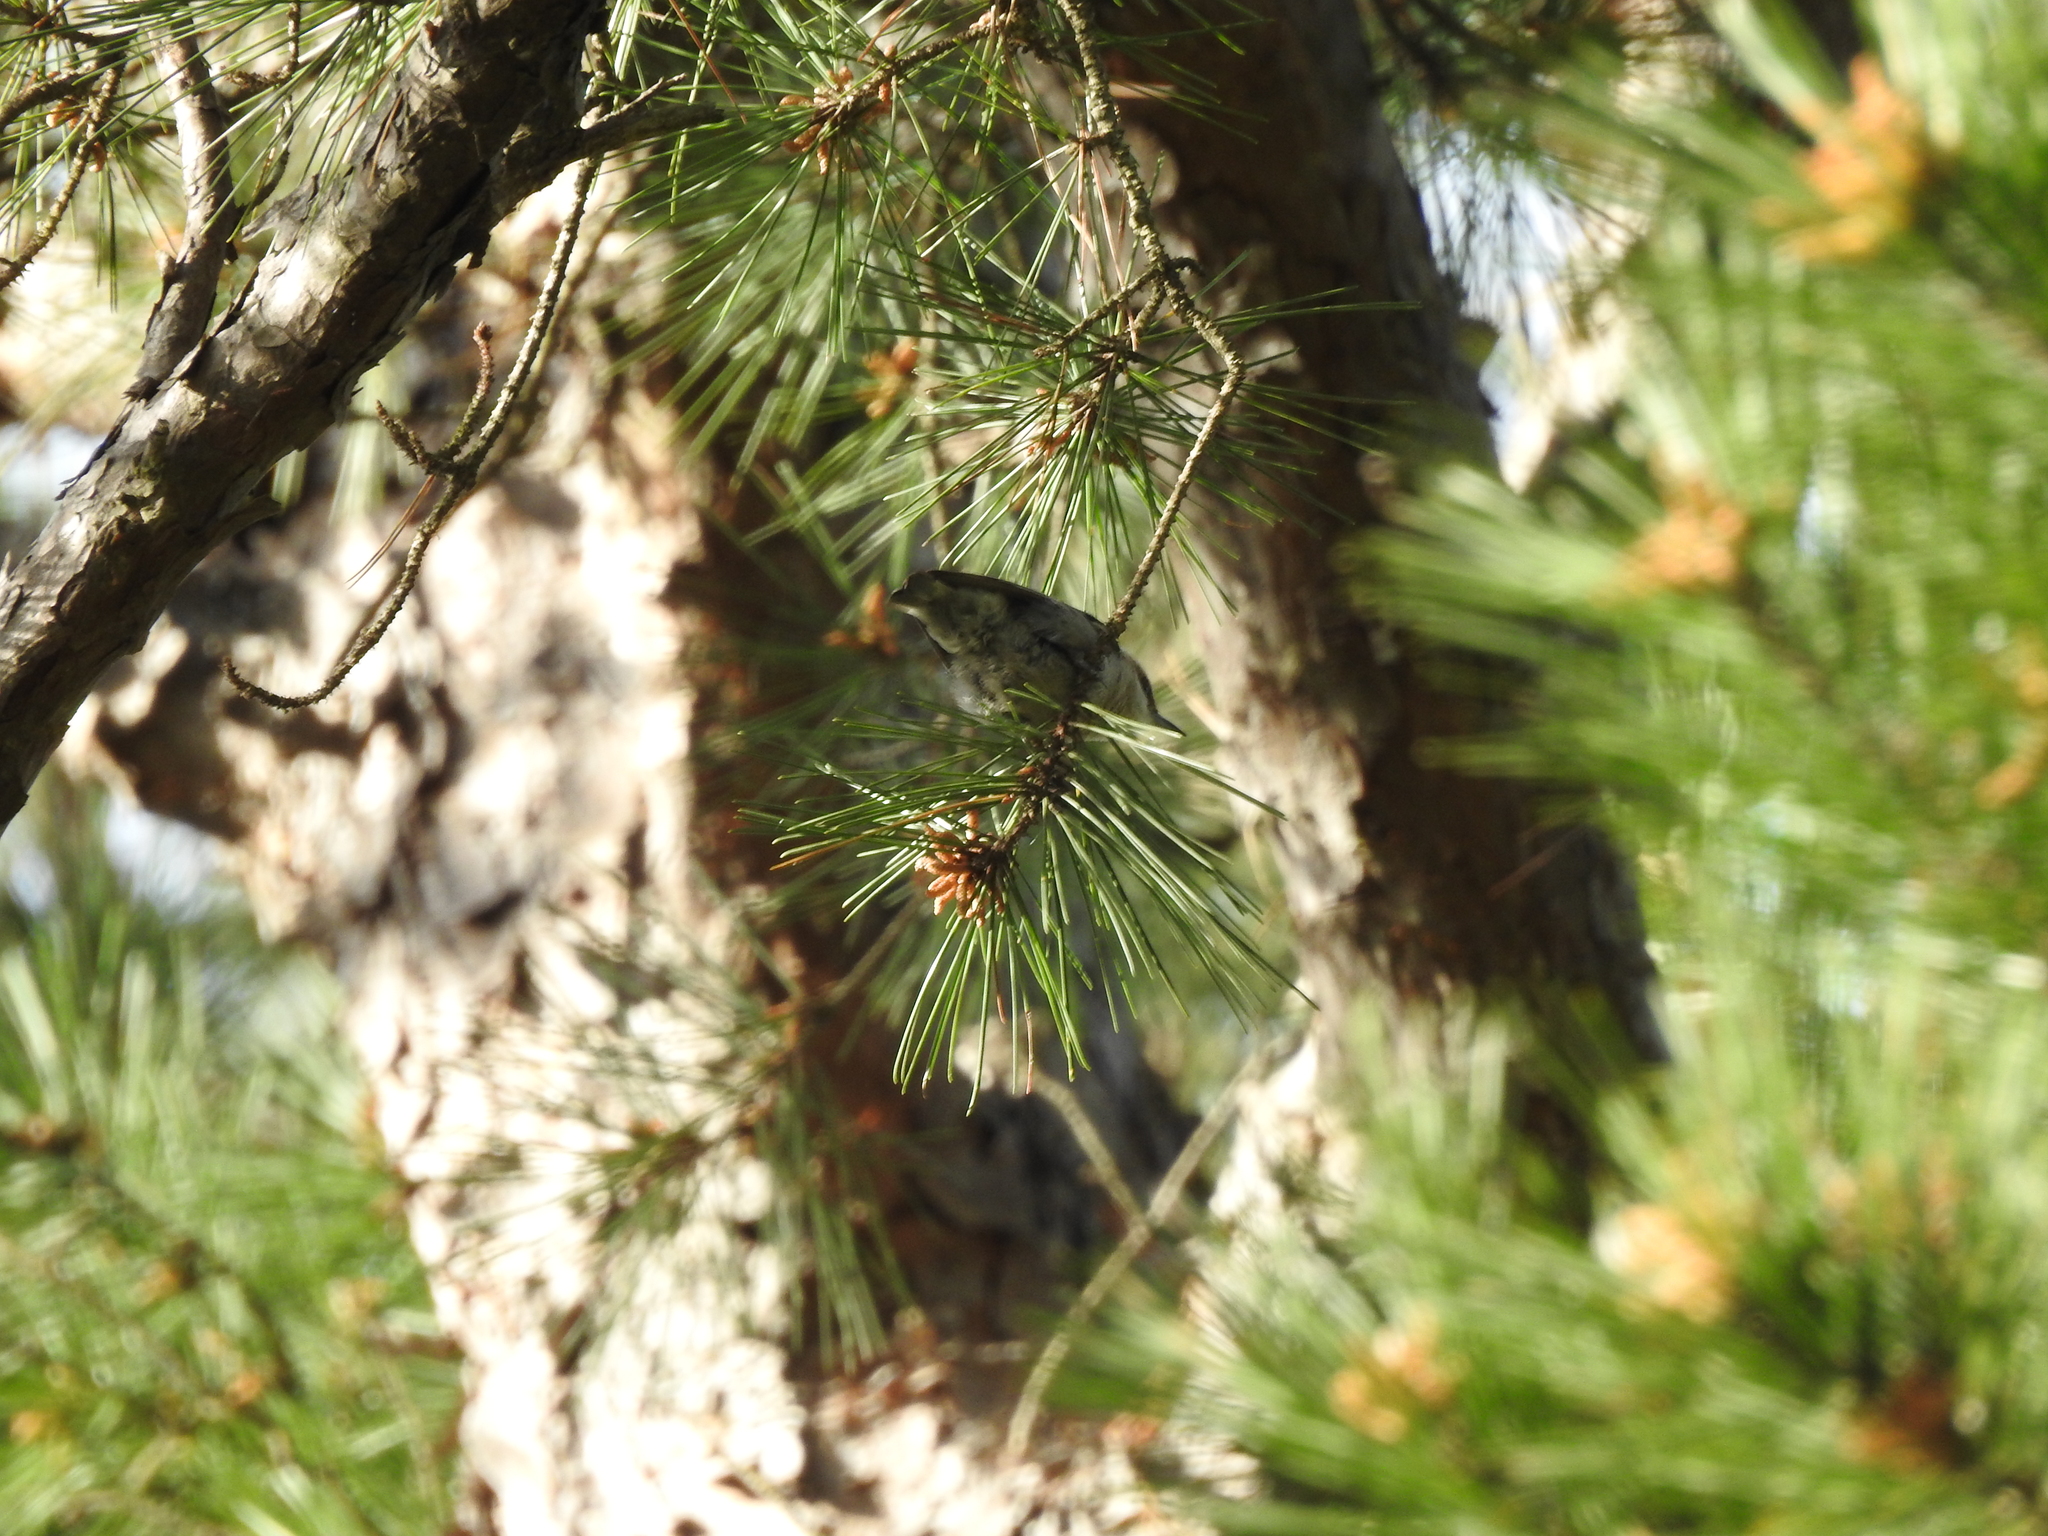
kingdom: Animalia
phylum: Chordata
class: Aves
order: Passeriformes
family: Sittidae
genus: Sitta
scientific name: Sitta pusilla
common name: Brown-headed nuthatch
